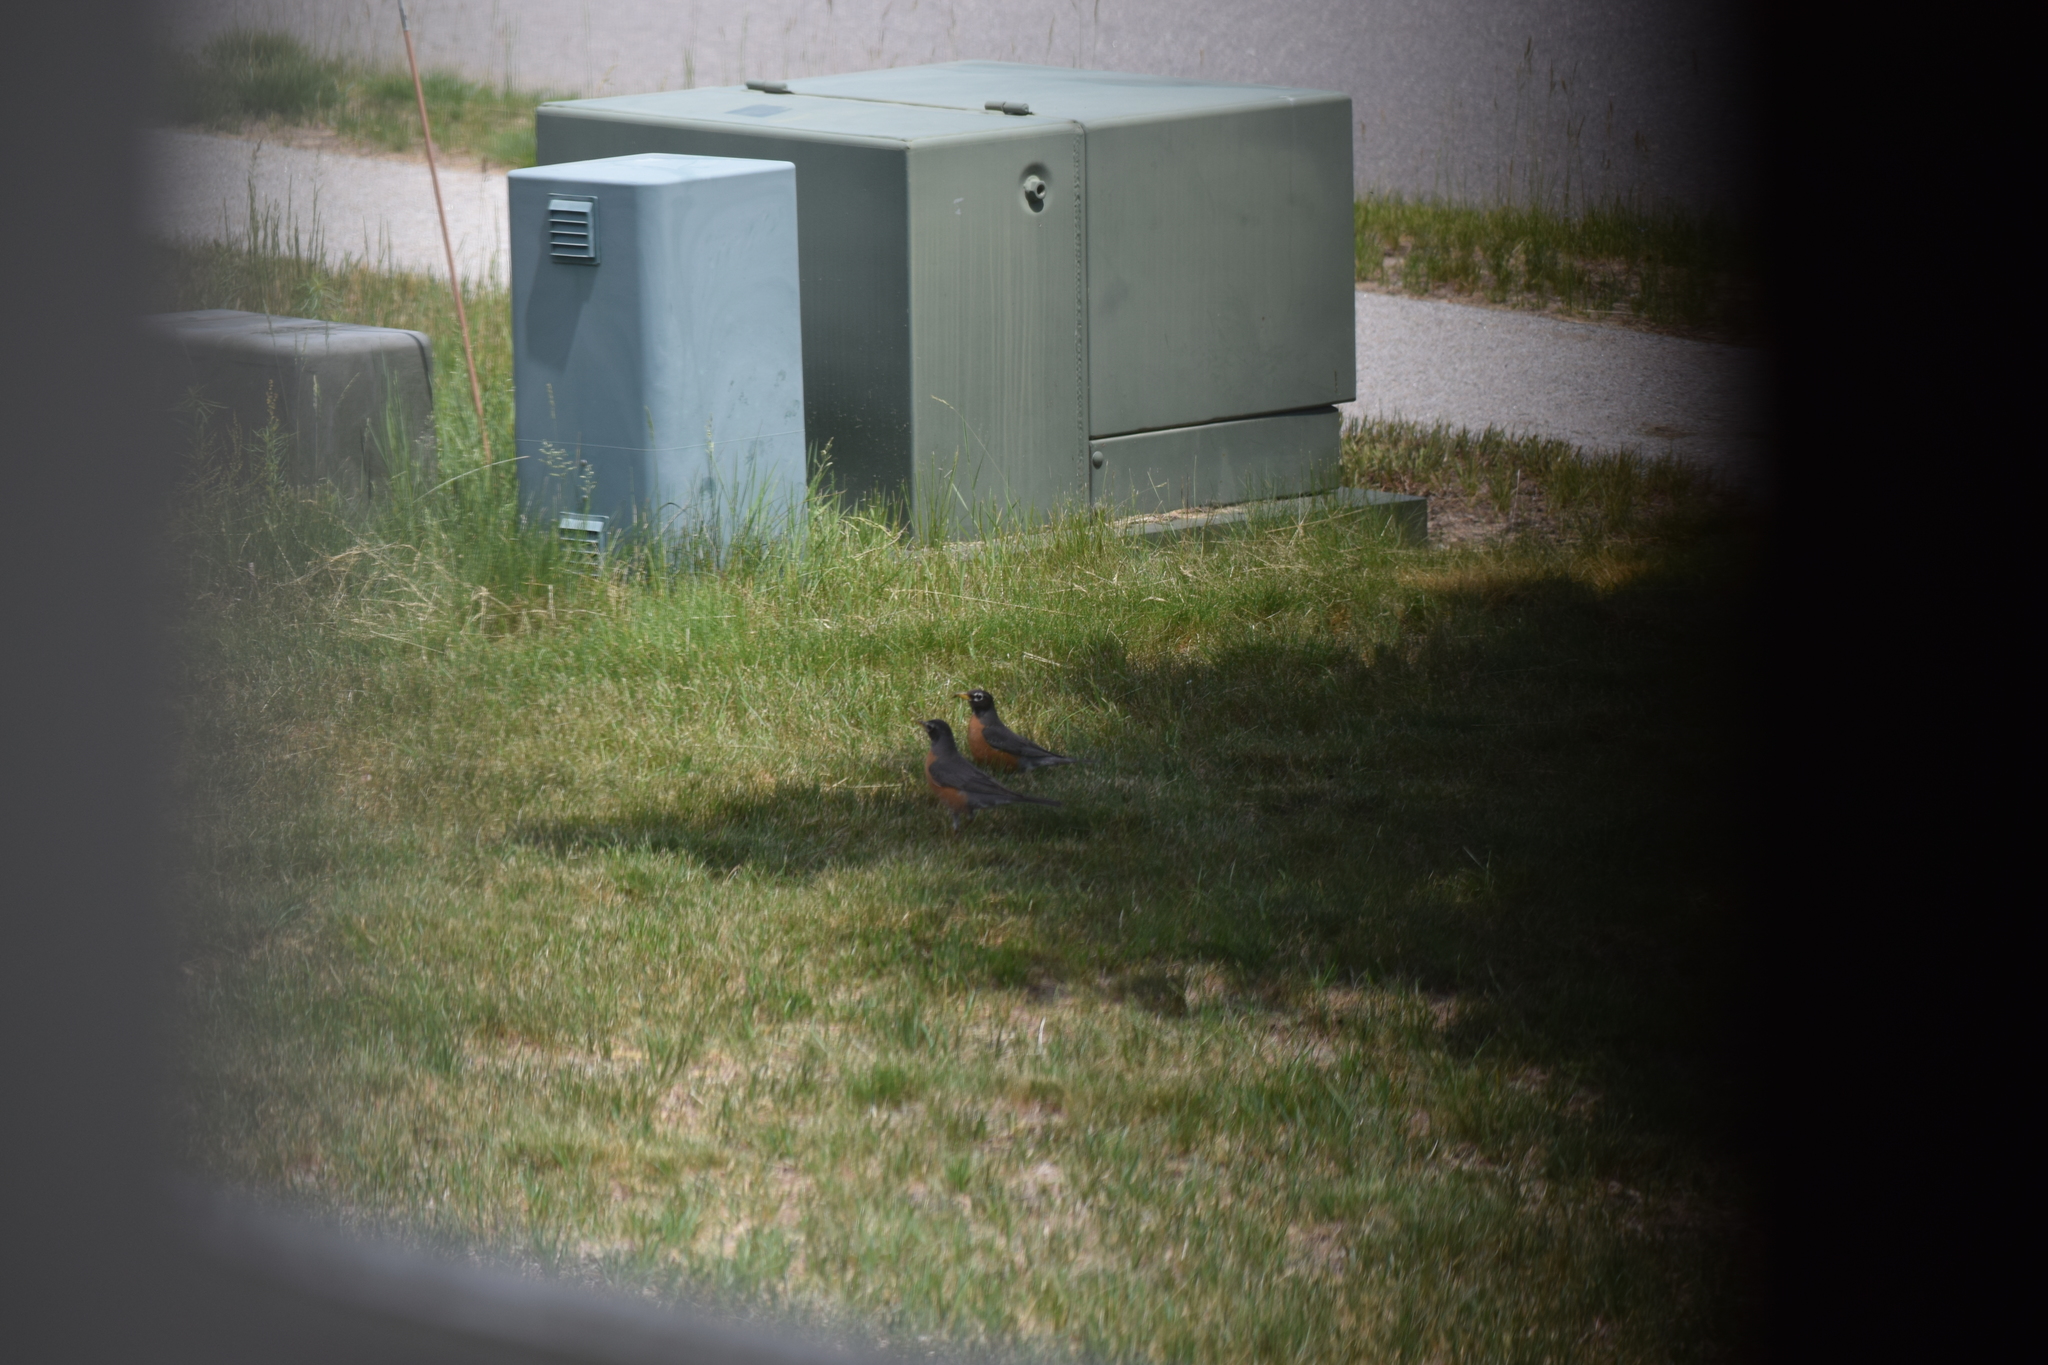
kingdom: Animalia
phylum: Chordata
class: Aves
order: Passeriformes
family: Turdidae
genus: Turdus
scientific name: Turdus migratorius
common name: American robin
